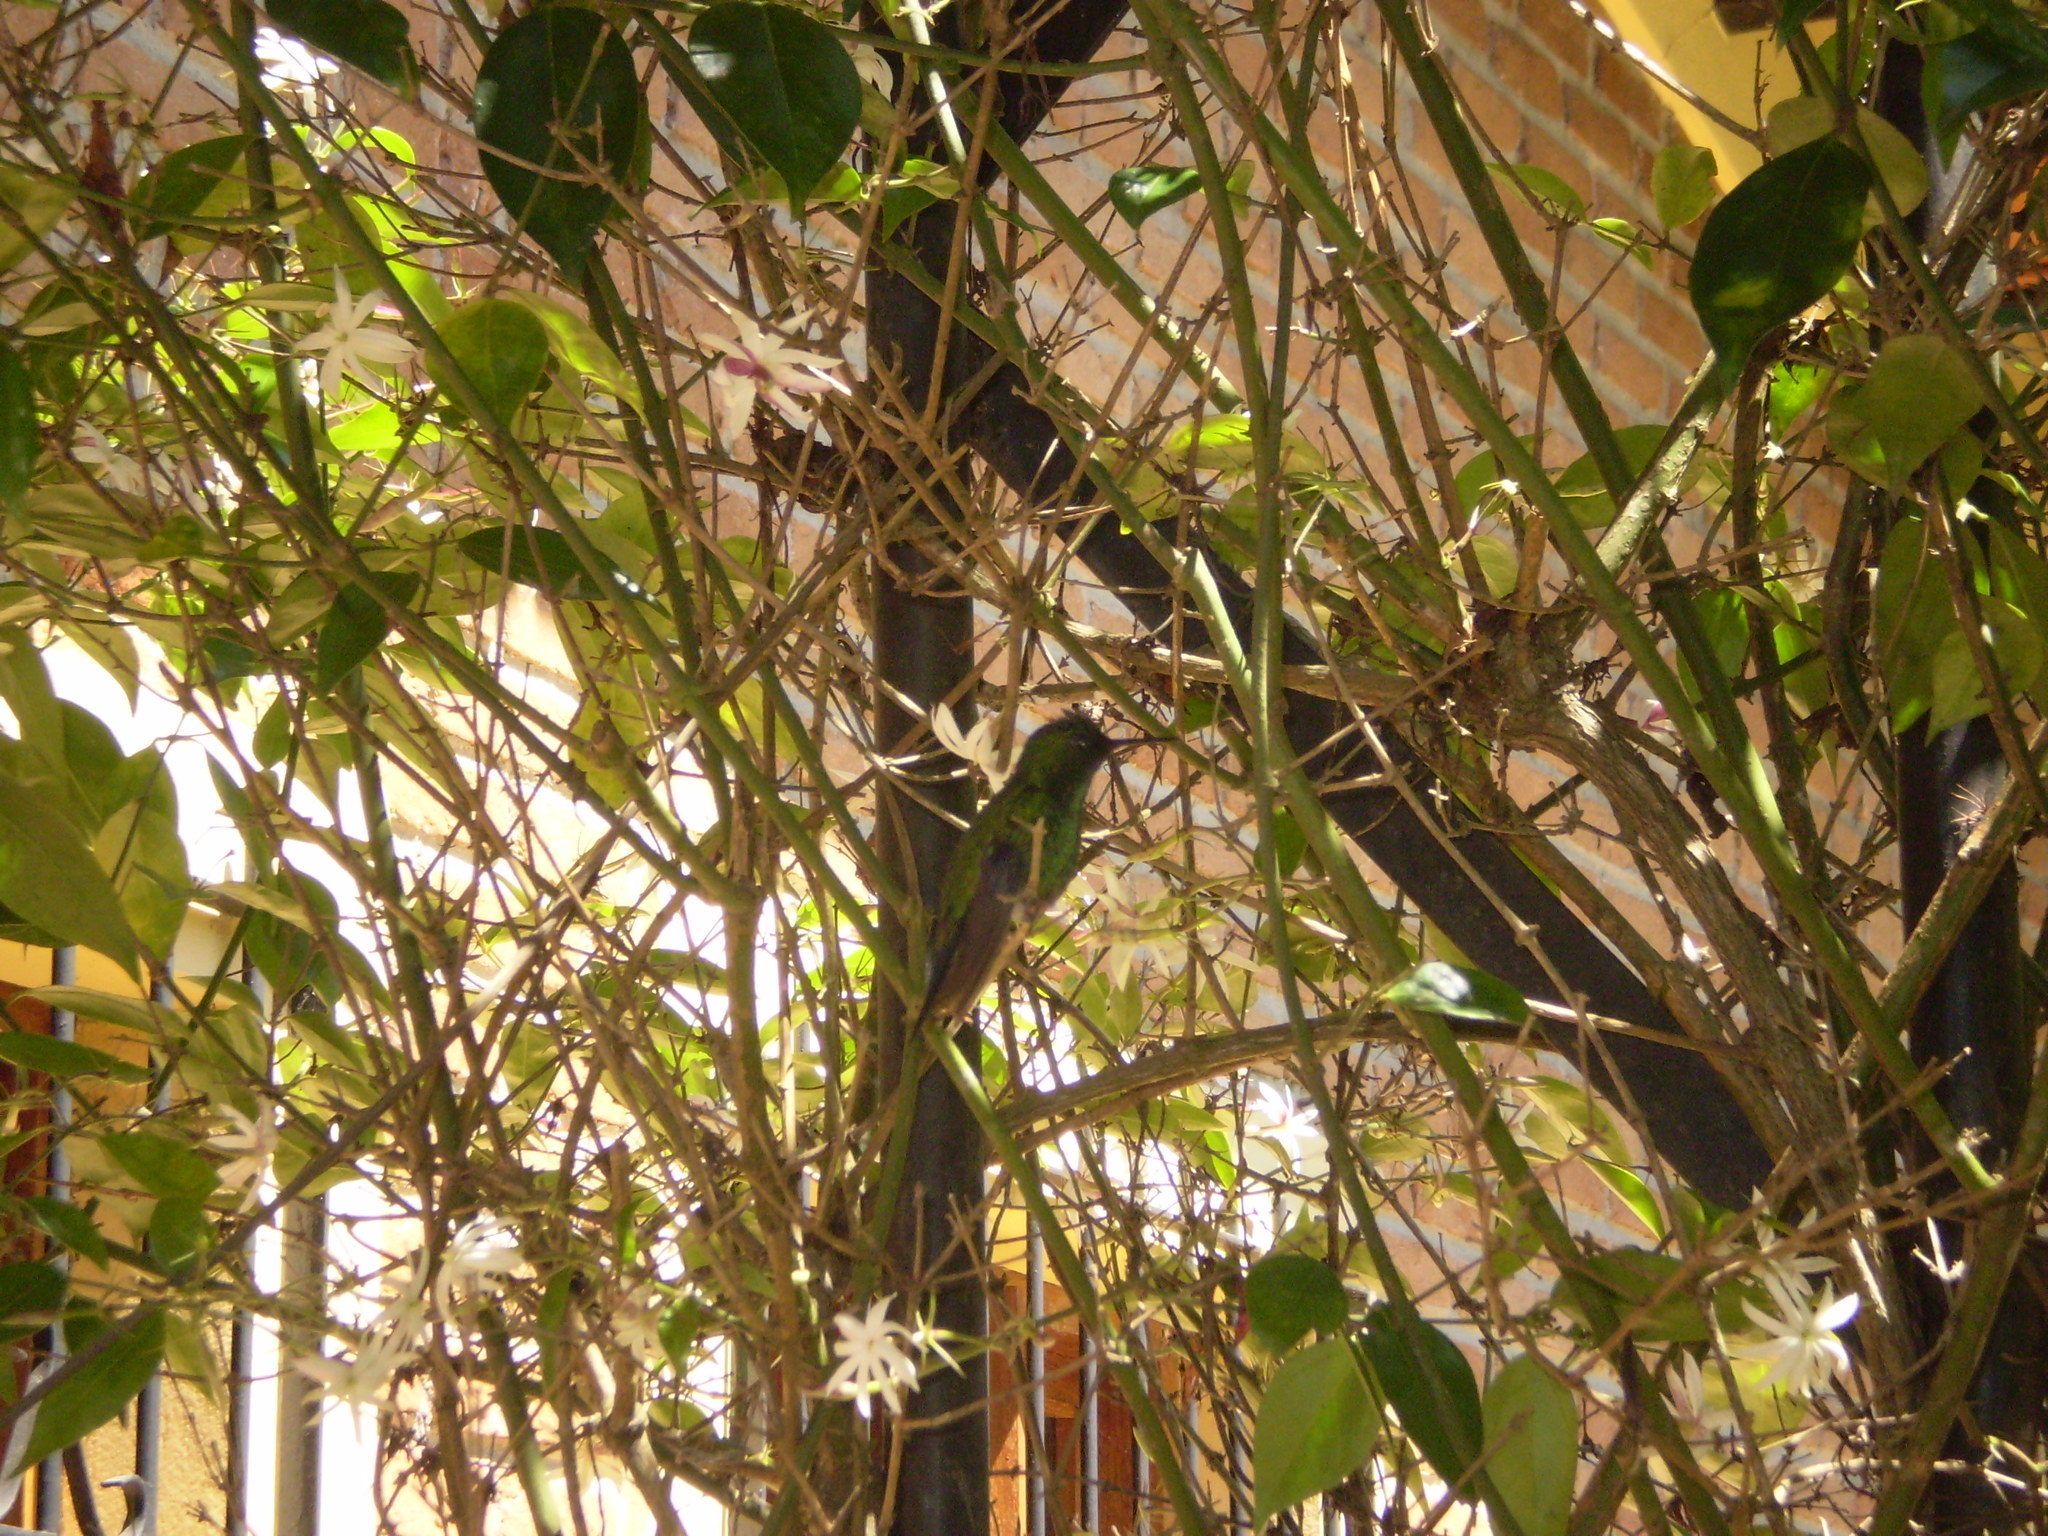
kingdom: Animalia
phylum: Chordata
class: Aves
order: Apodiformes
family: Trochilidae
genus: Thalurania
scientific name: Thalurania glaucopis
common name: Violet-capped woodnymph
